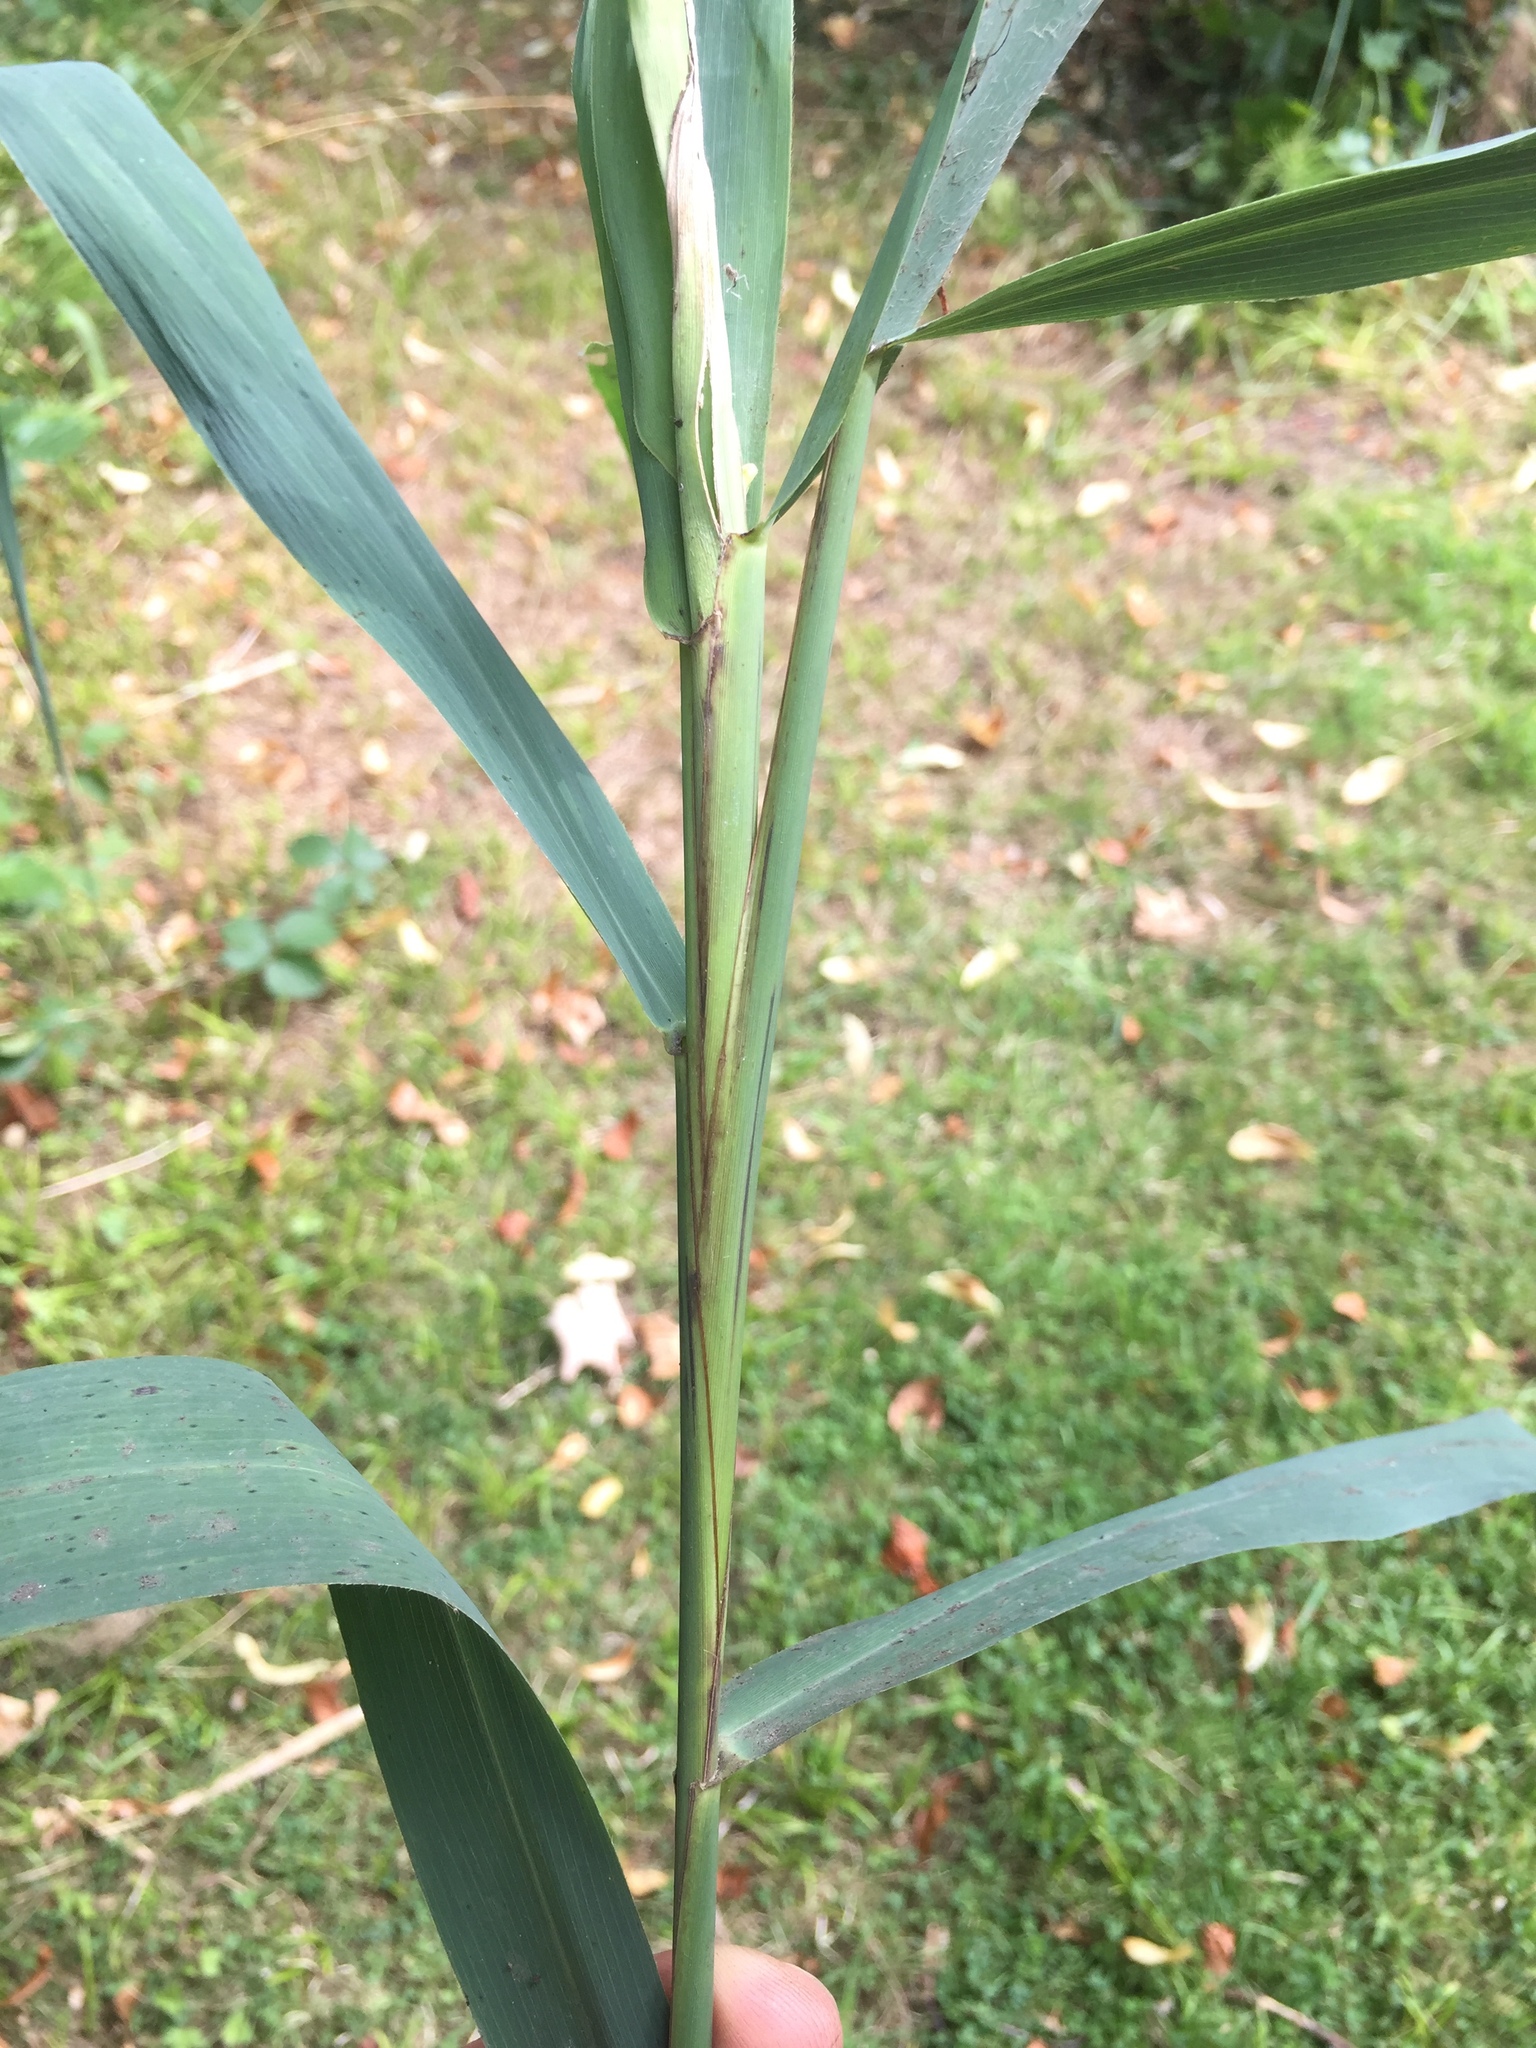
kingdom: Animalia
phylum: Arthropoda
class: Insecta
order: Diptera
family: Chloropidae
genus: Lipara
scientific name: Lipara lucens
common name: Frit fly
